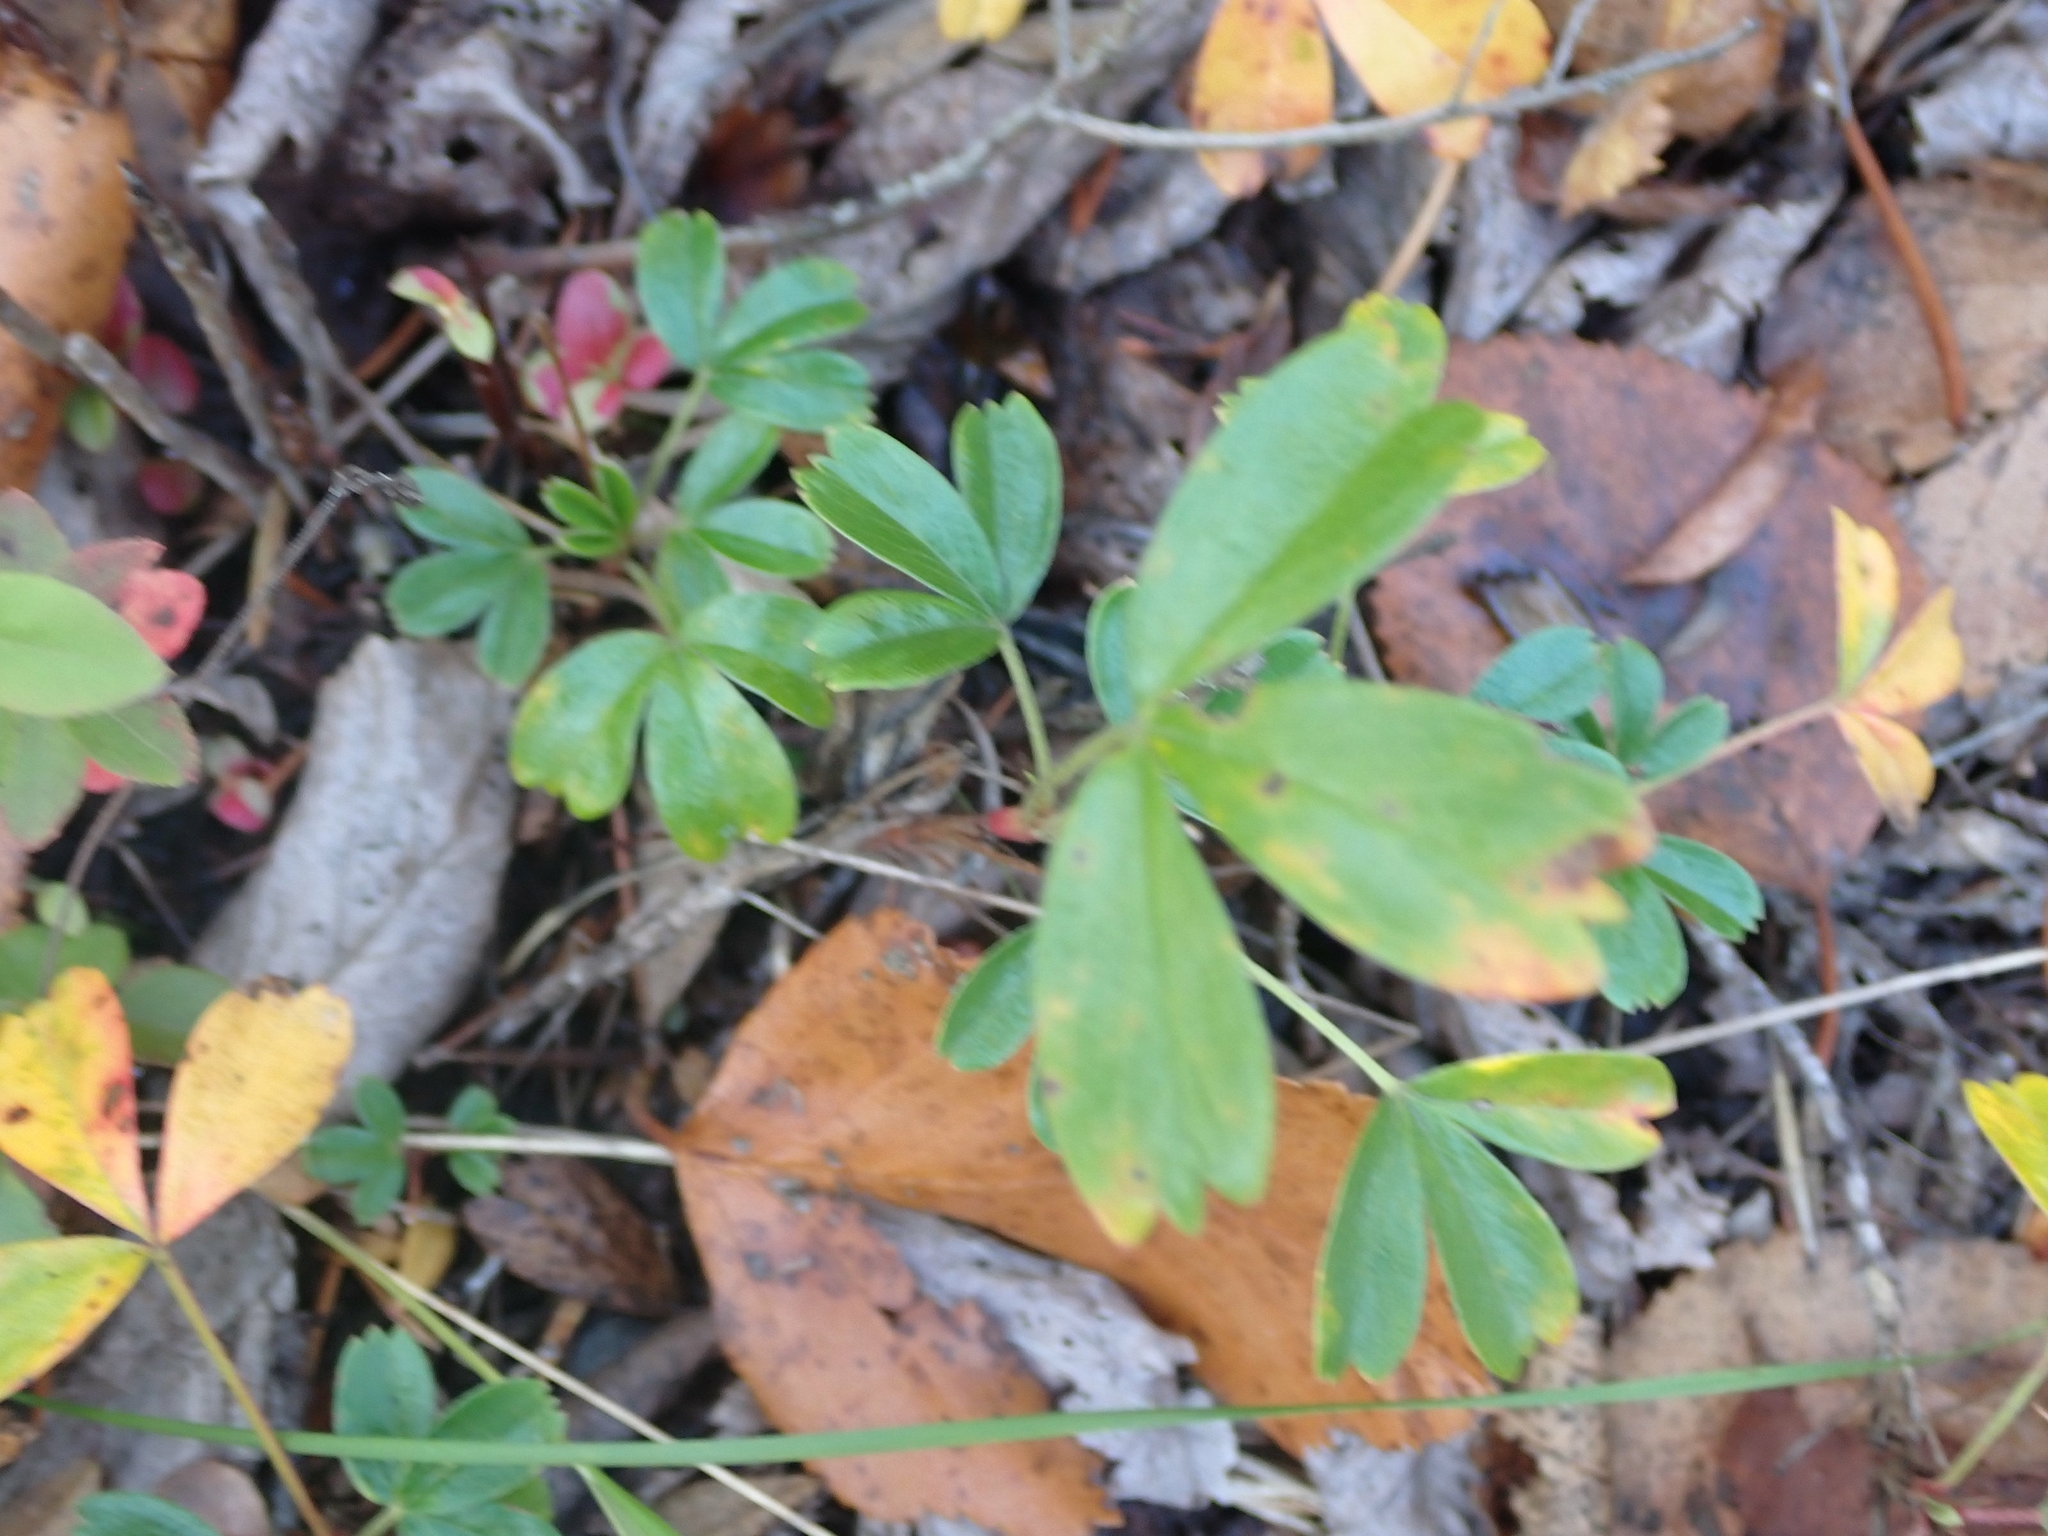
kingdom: Plantae
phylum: Tracheophyta
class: Magnoliopsida
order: Rosales
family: Rosaceae
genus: Sibbaldia
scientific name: Sibbaldia tridentata
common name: Three-toothed cinquefoil
